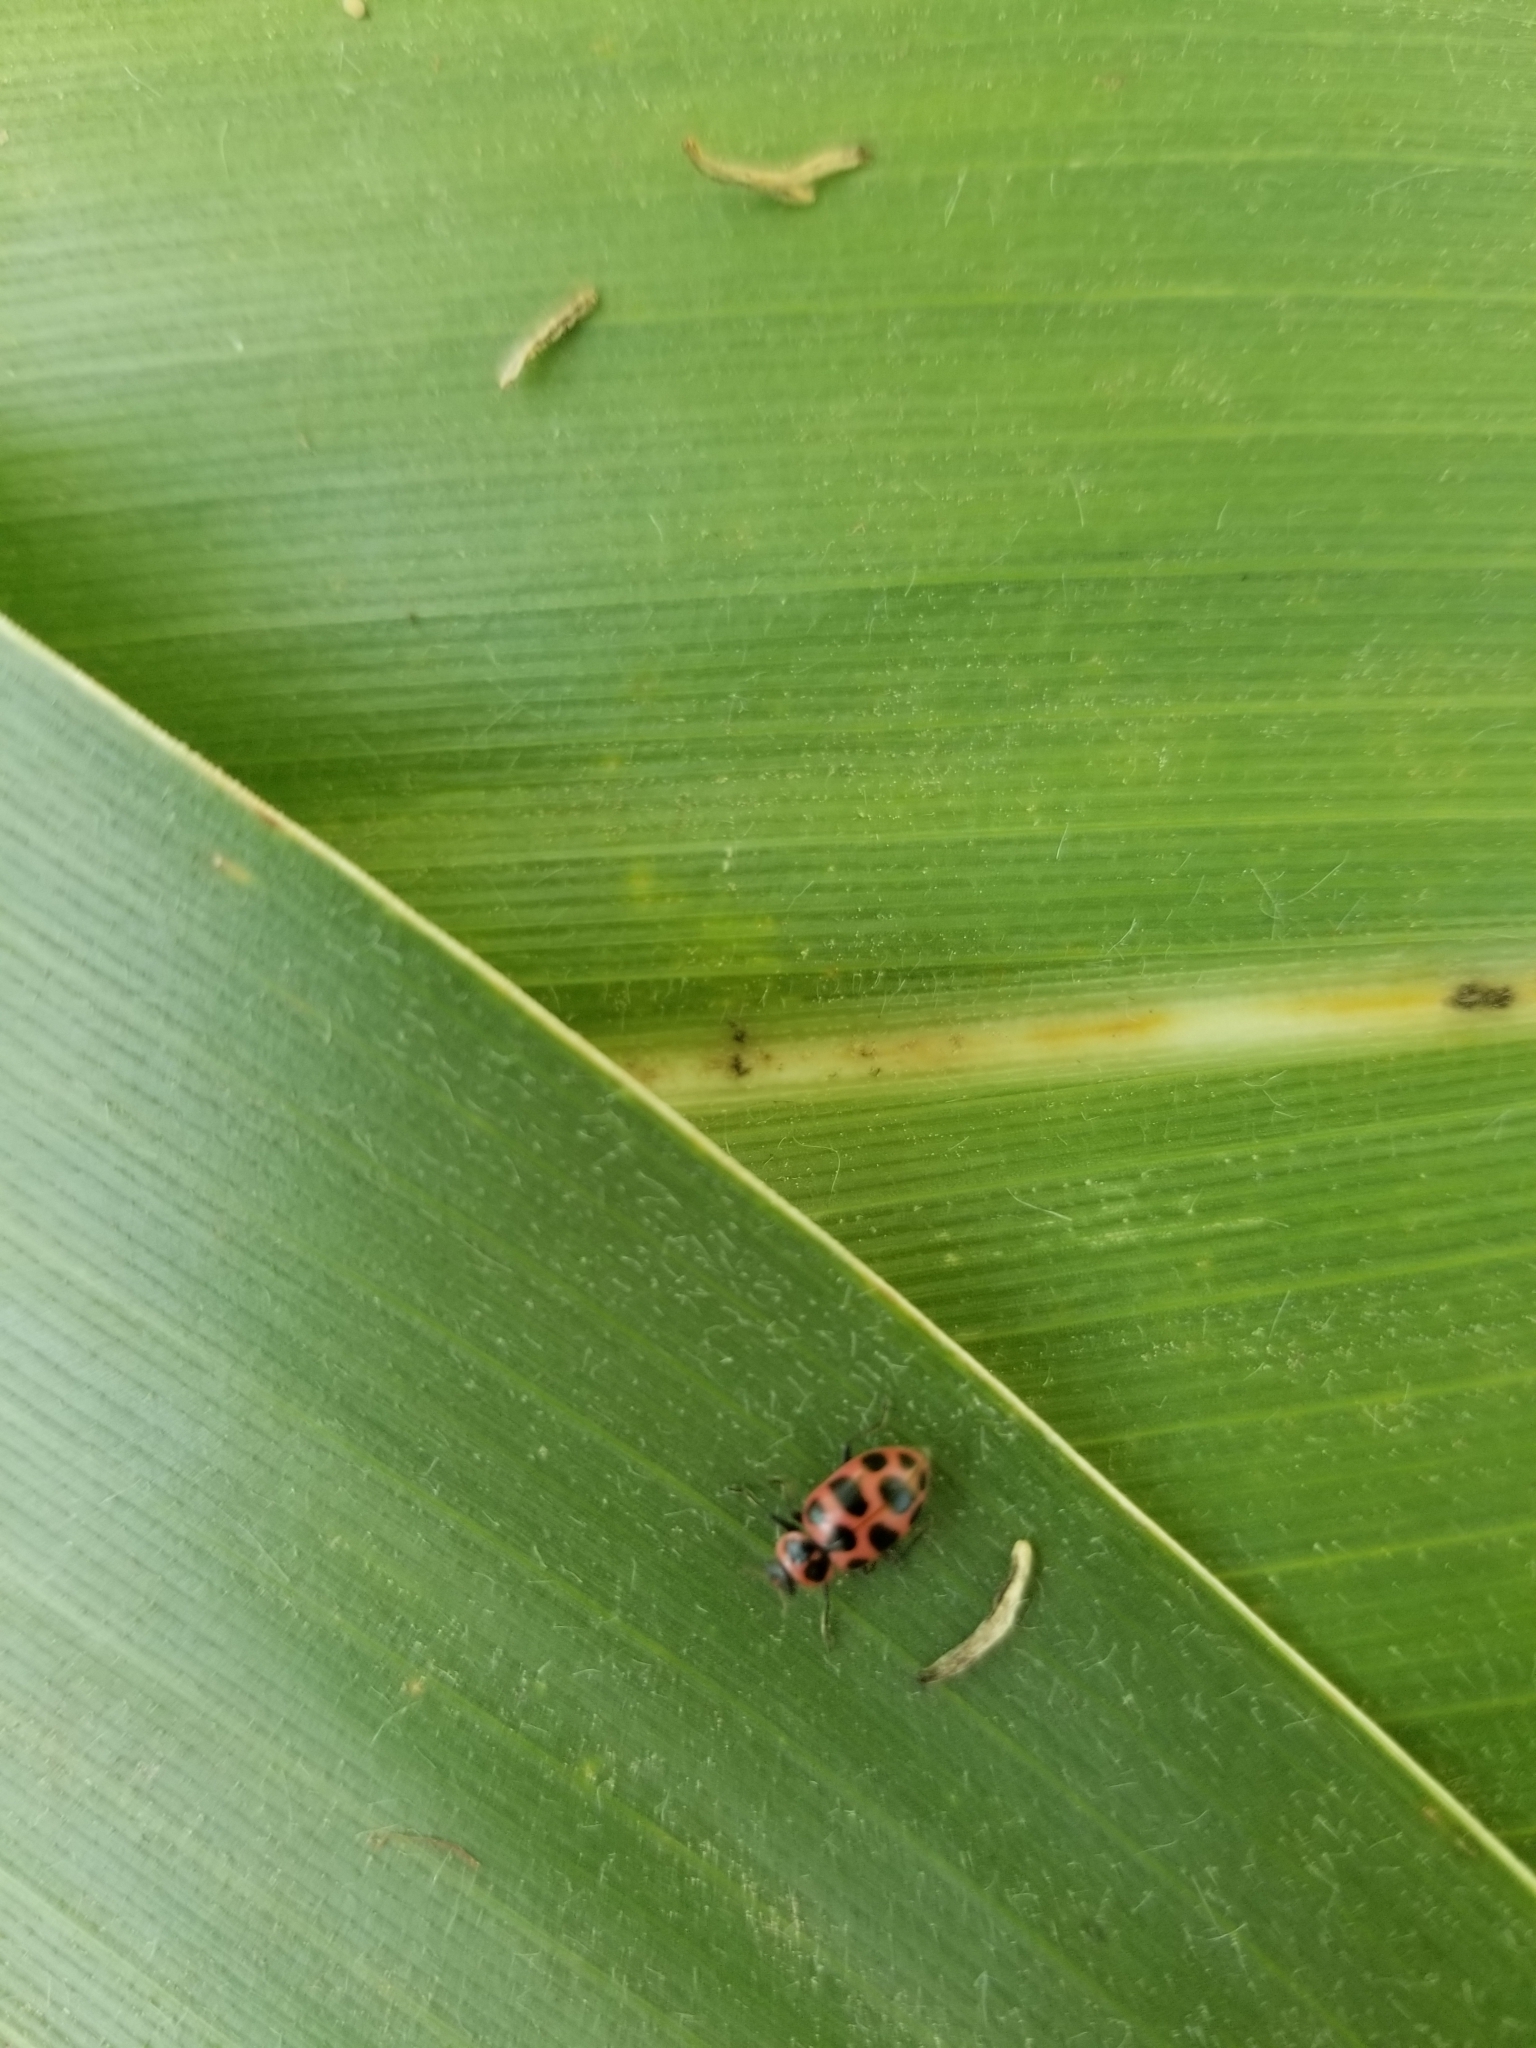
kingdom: Animalia
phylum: Arthropoda
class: Insecta
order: Coleoptera
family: Coccinellidae
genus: Coleomegilla
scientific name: Coleomegilla maculata
